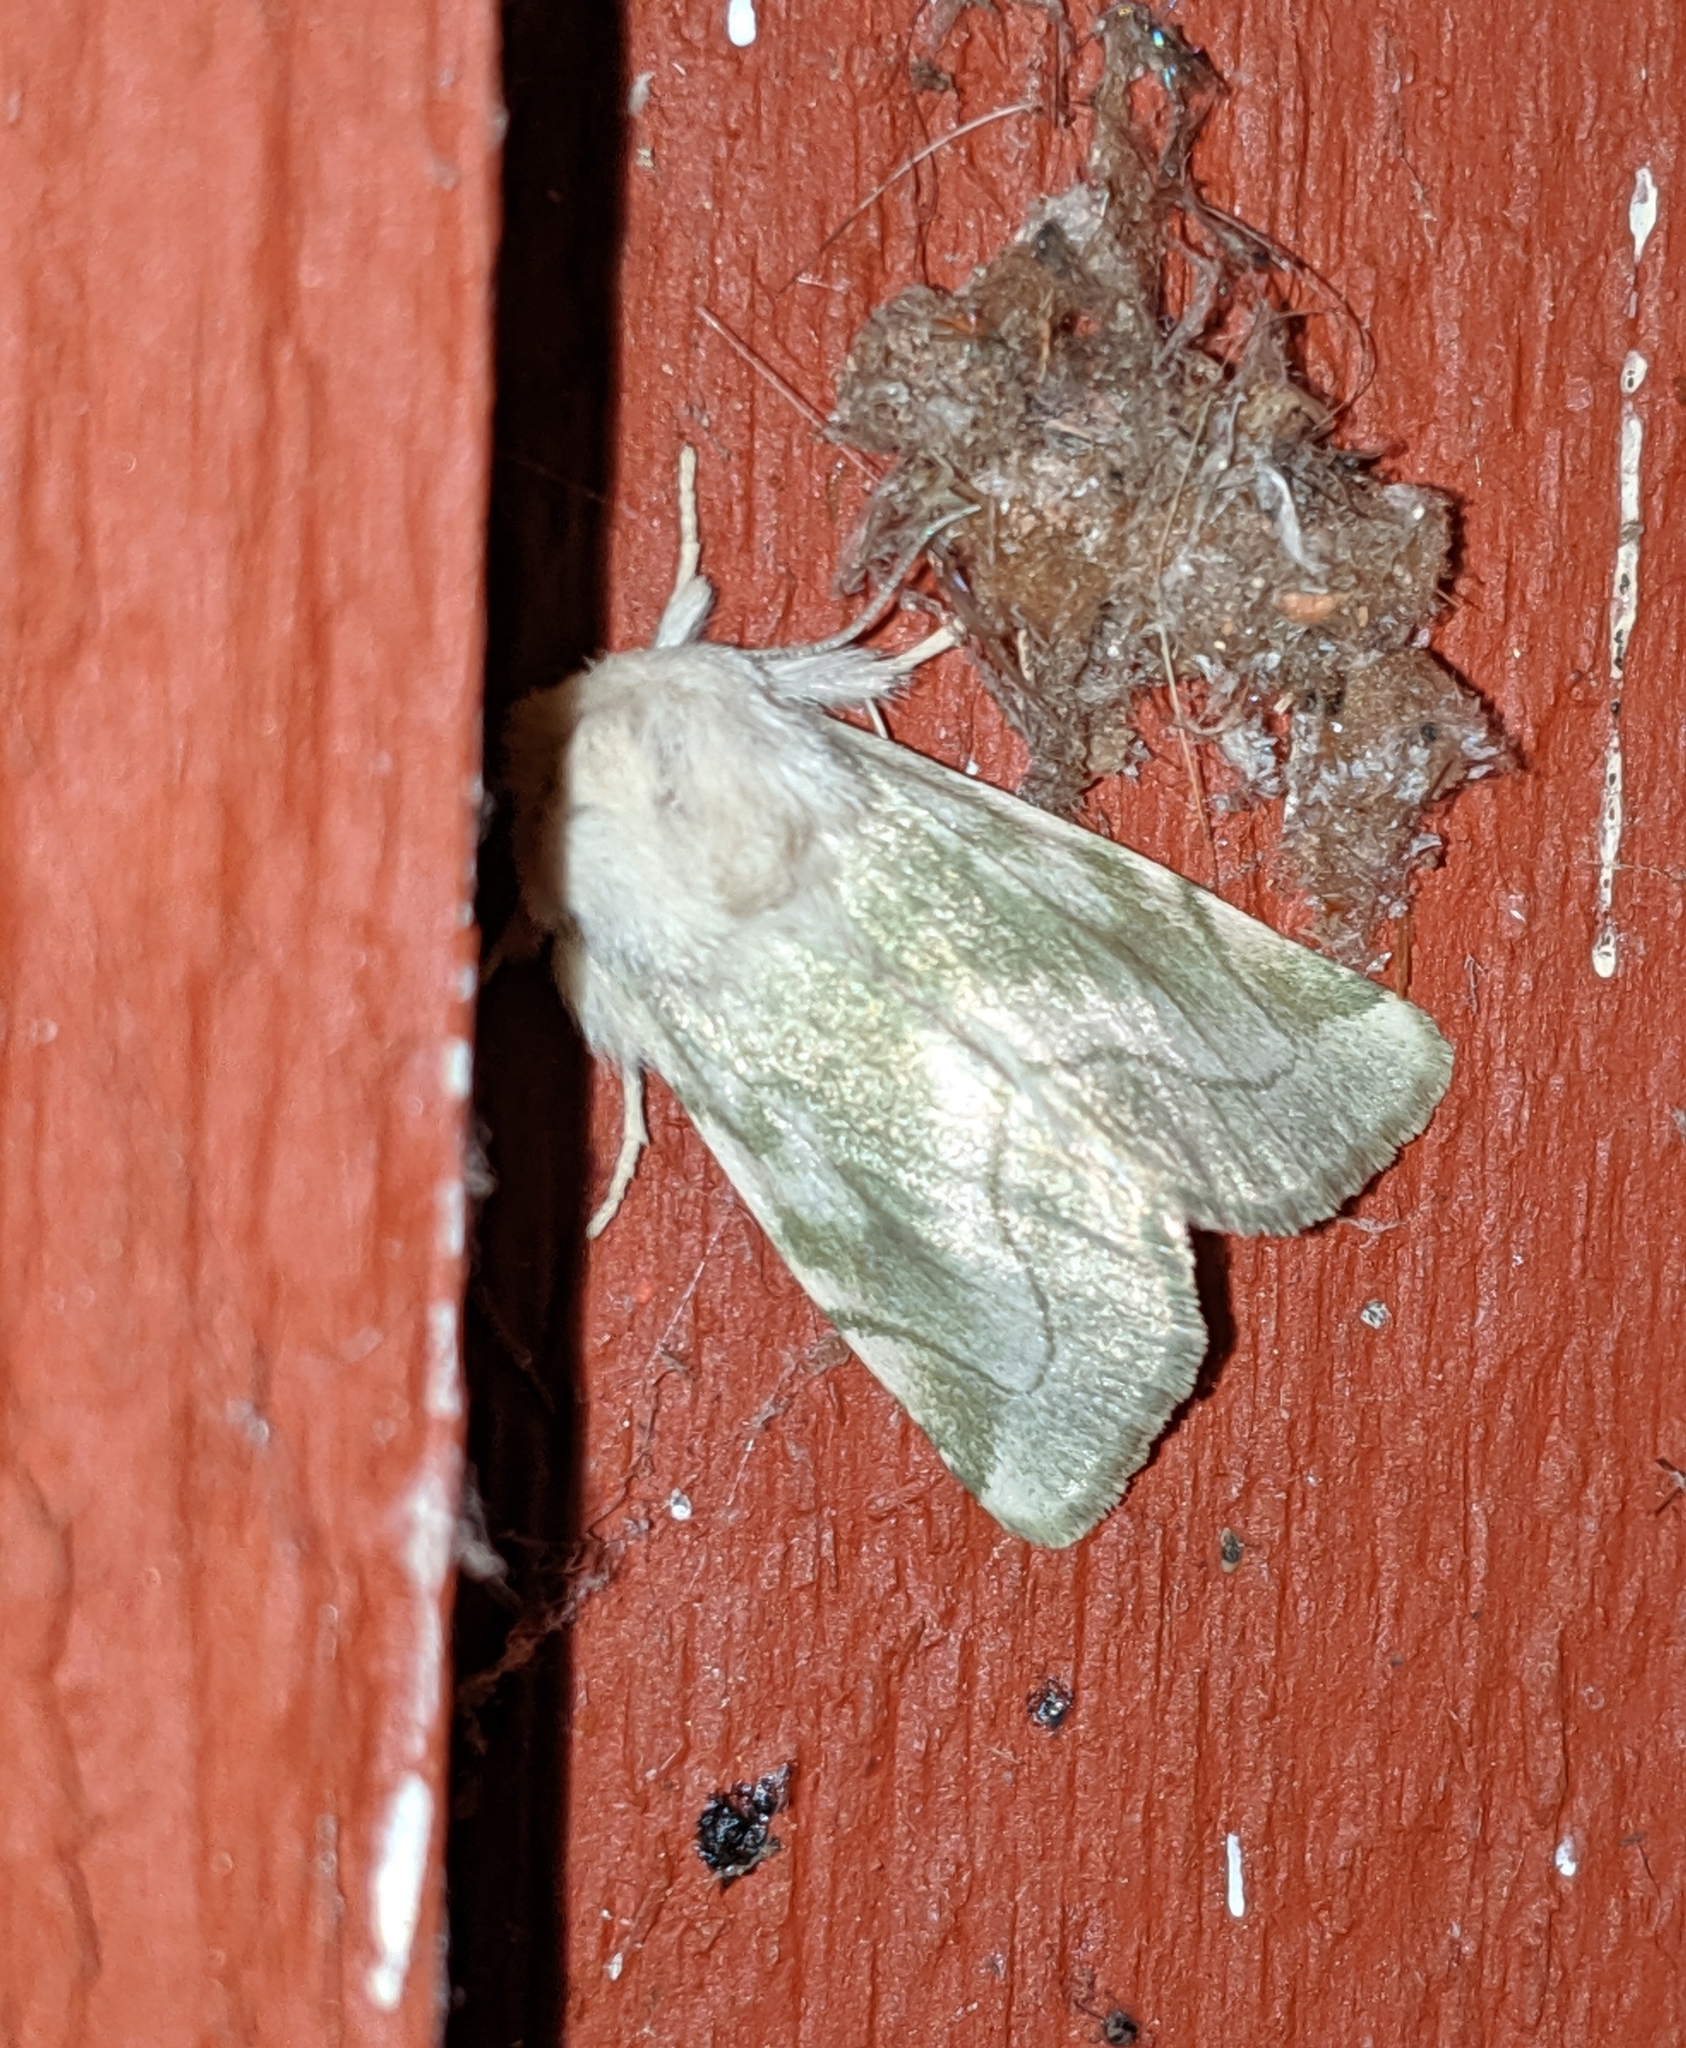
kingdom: Animalia
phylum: Arthropoda
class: Insecta
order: Lepidoptera
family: Noctuidae
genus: Zotheca
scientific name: Zotheca tranquilla
